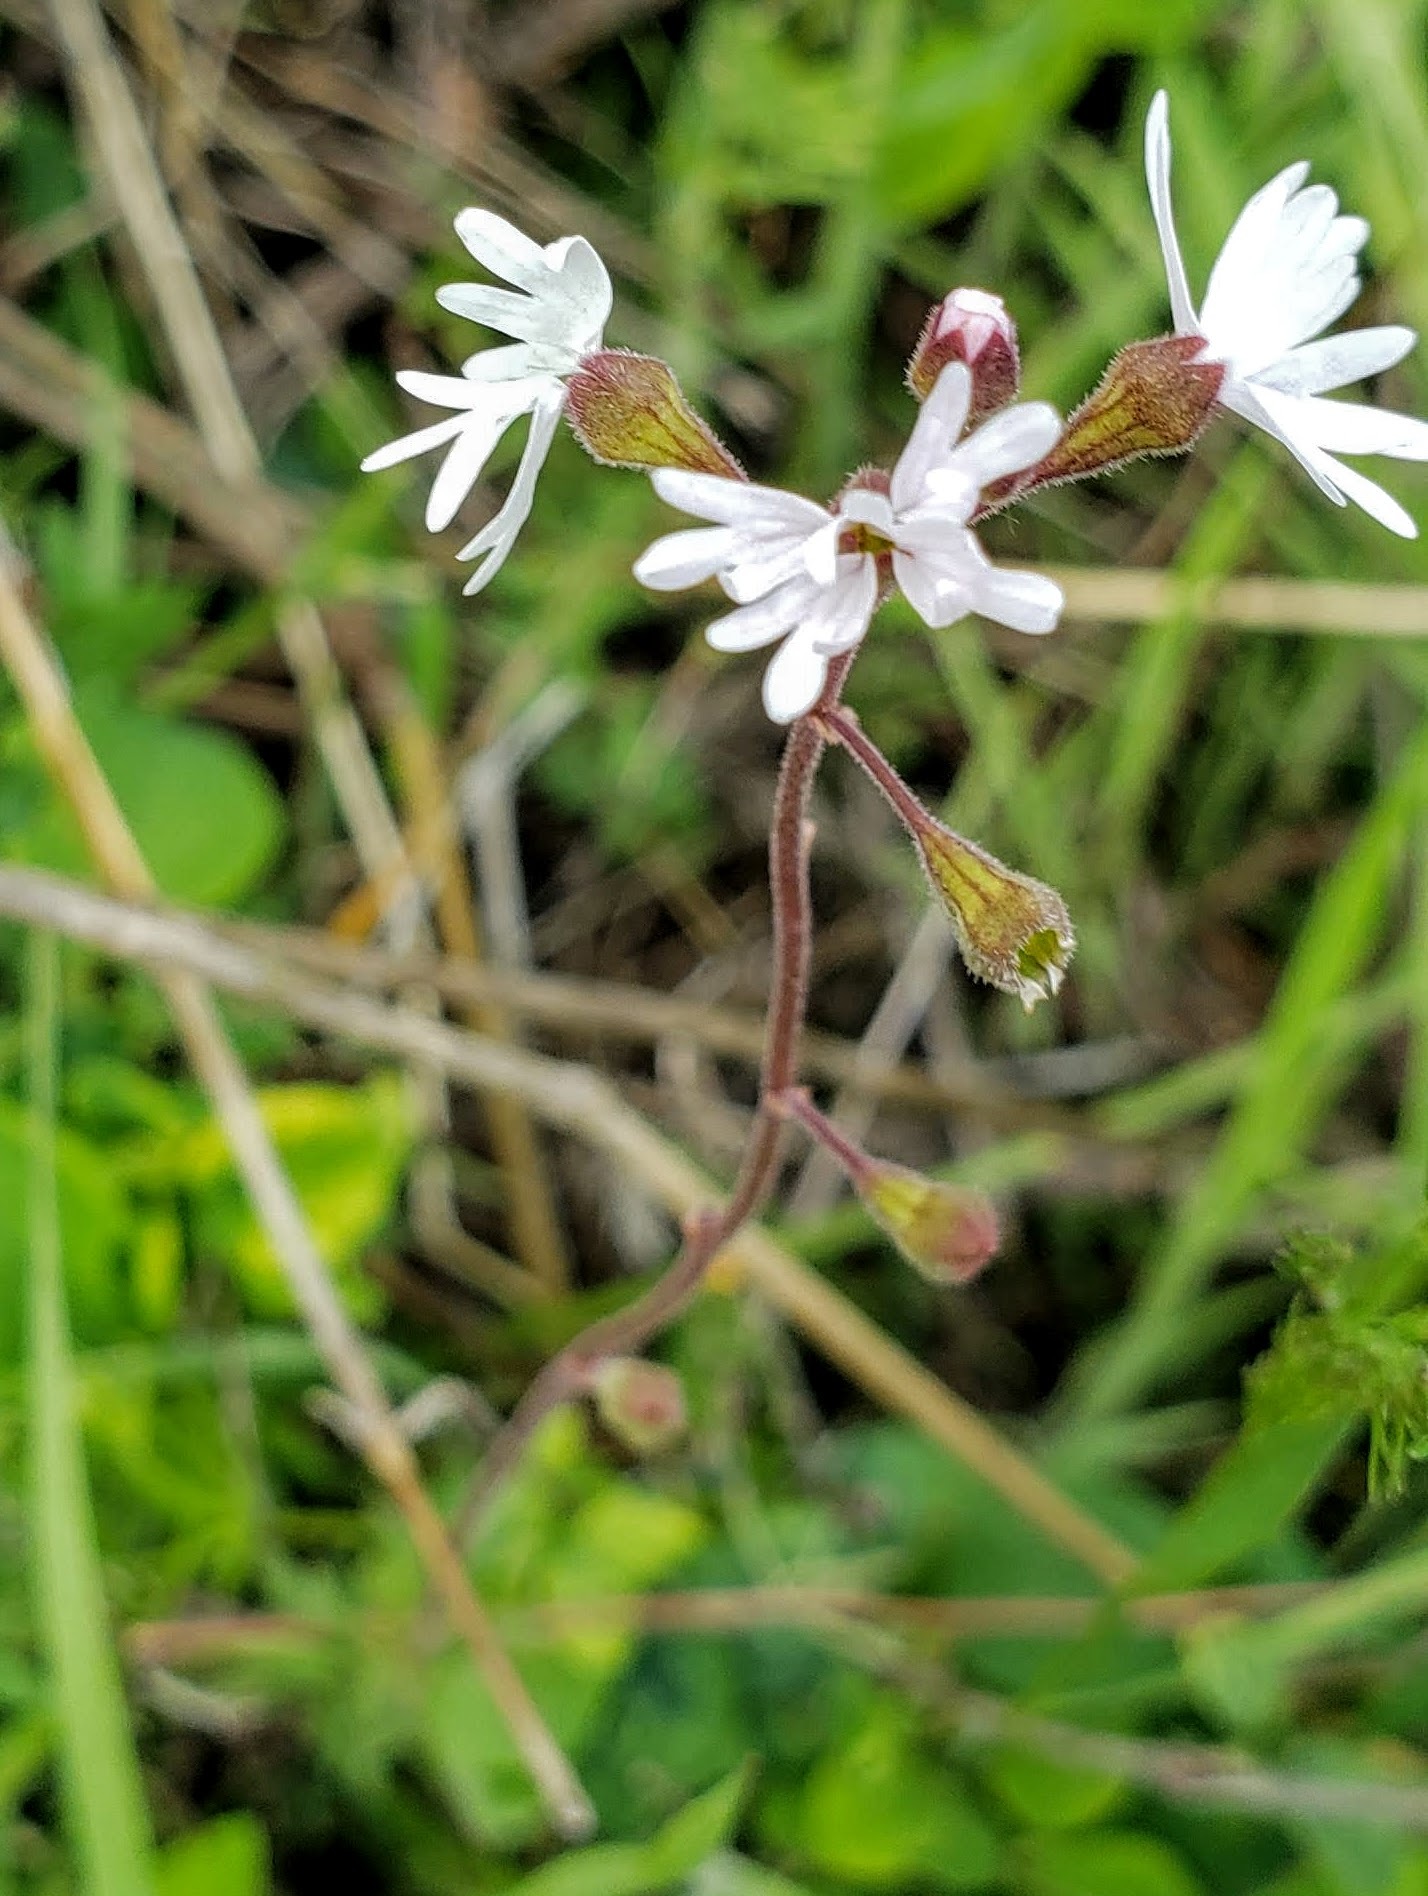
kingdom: Plantae
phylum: Tracheophyta
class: Magnoliopsida
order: Saxifragales
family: Saxifragaceae
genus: Lithophragma
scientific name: Lithophragma parviflorum
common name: Small-flowered fringe-cup
